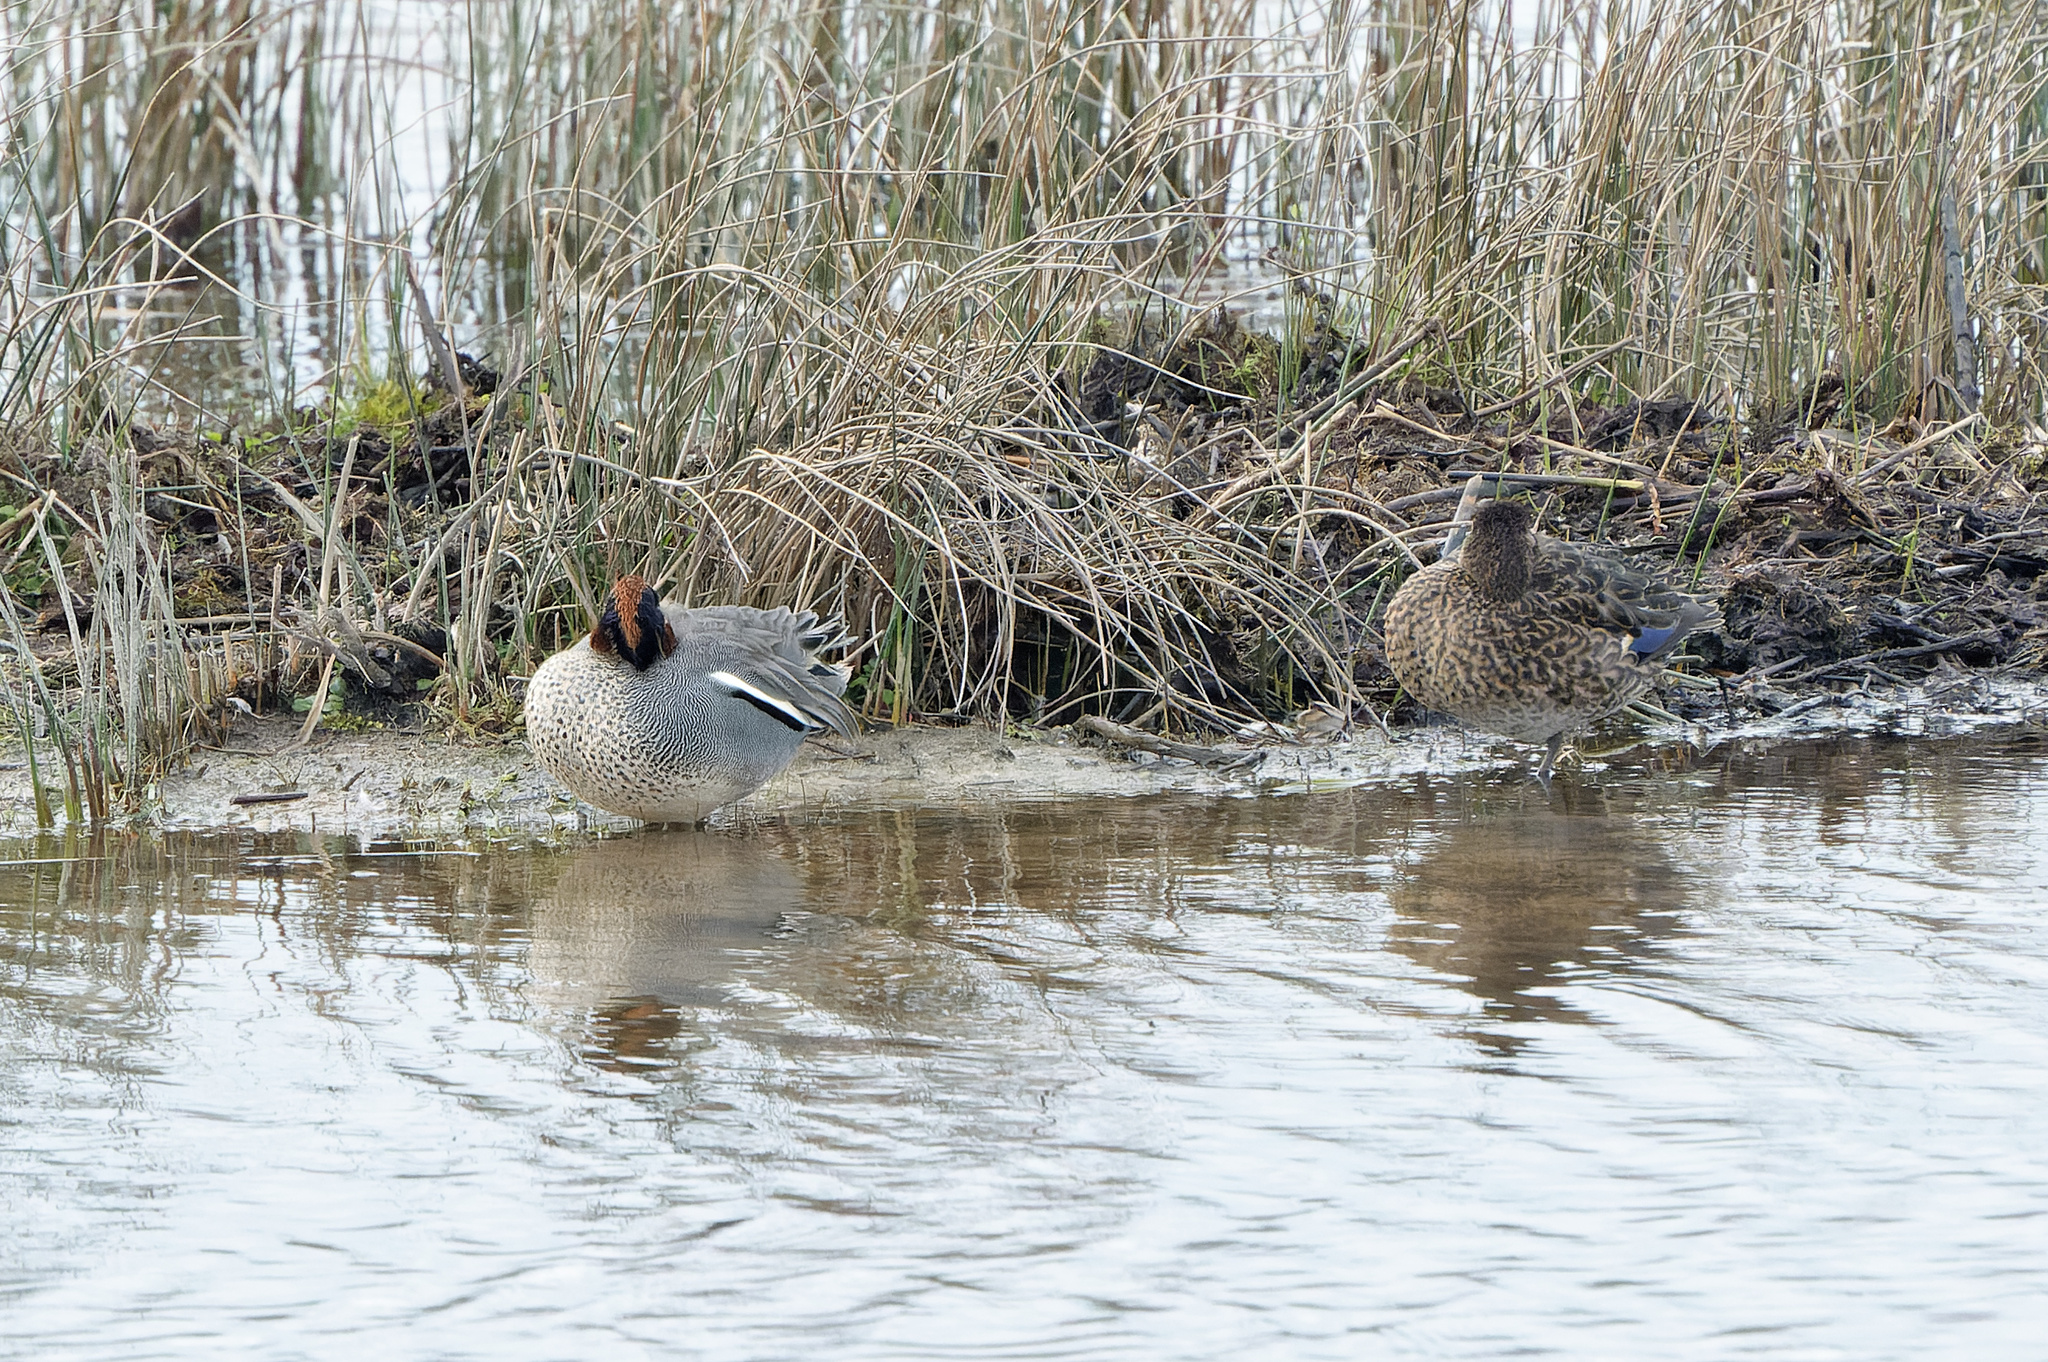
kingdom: Animalia
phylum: Chordata
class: Aves
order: Anseriformes
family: Anatidae
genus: Anas
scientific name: Anas crecca
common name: Eurasian teal
